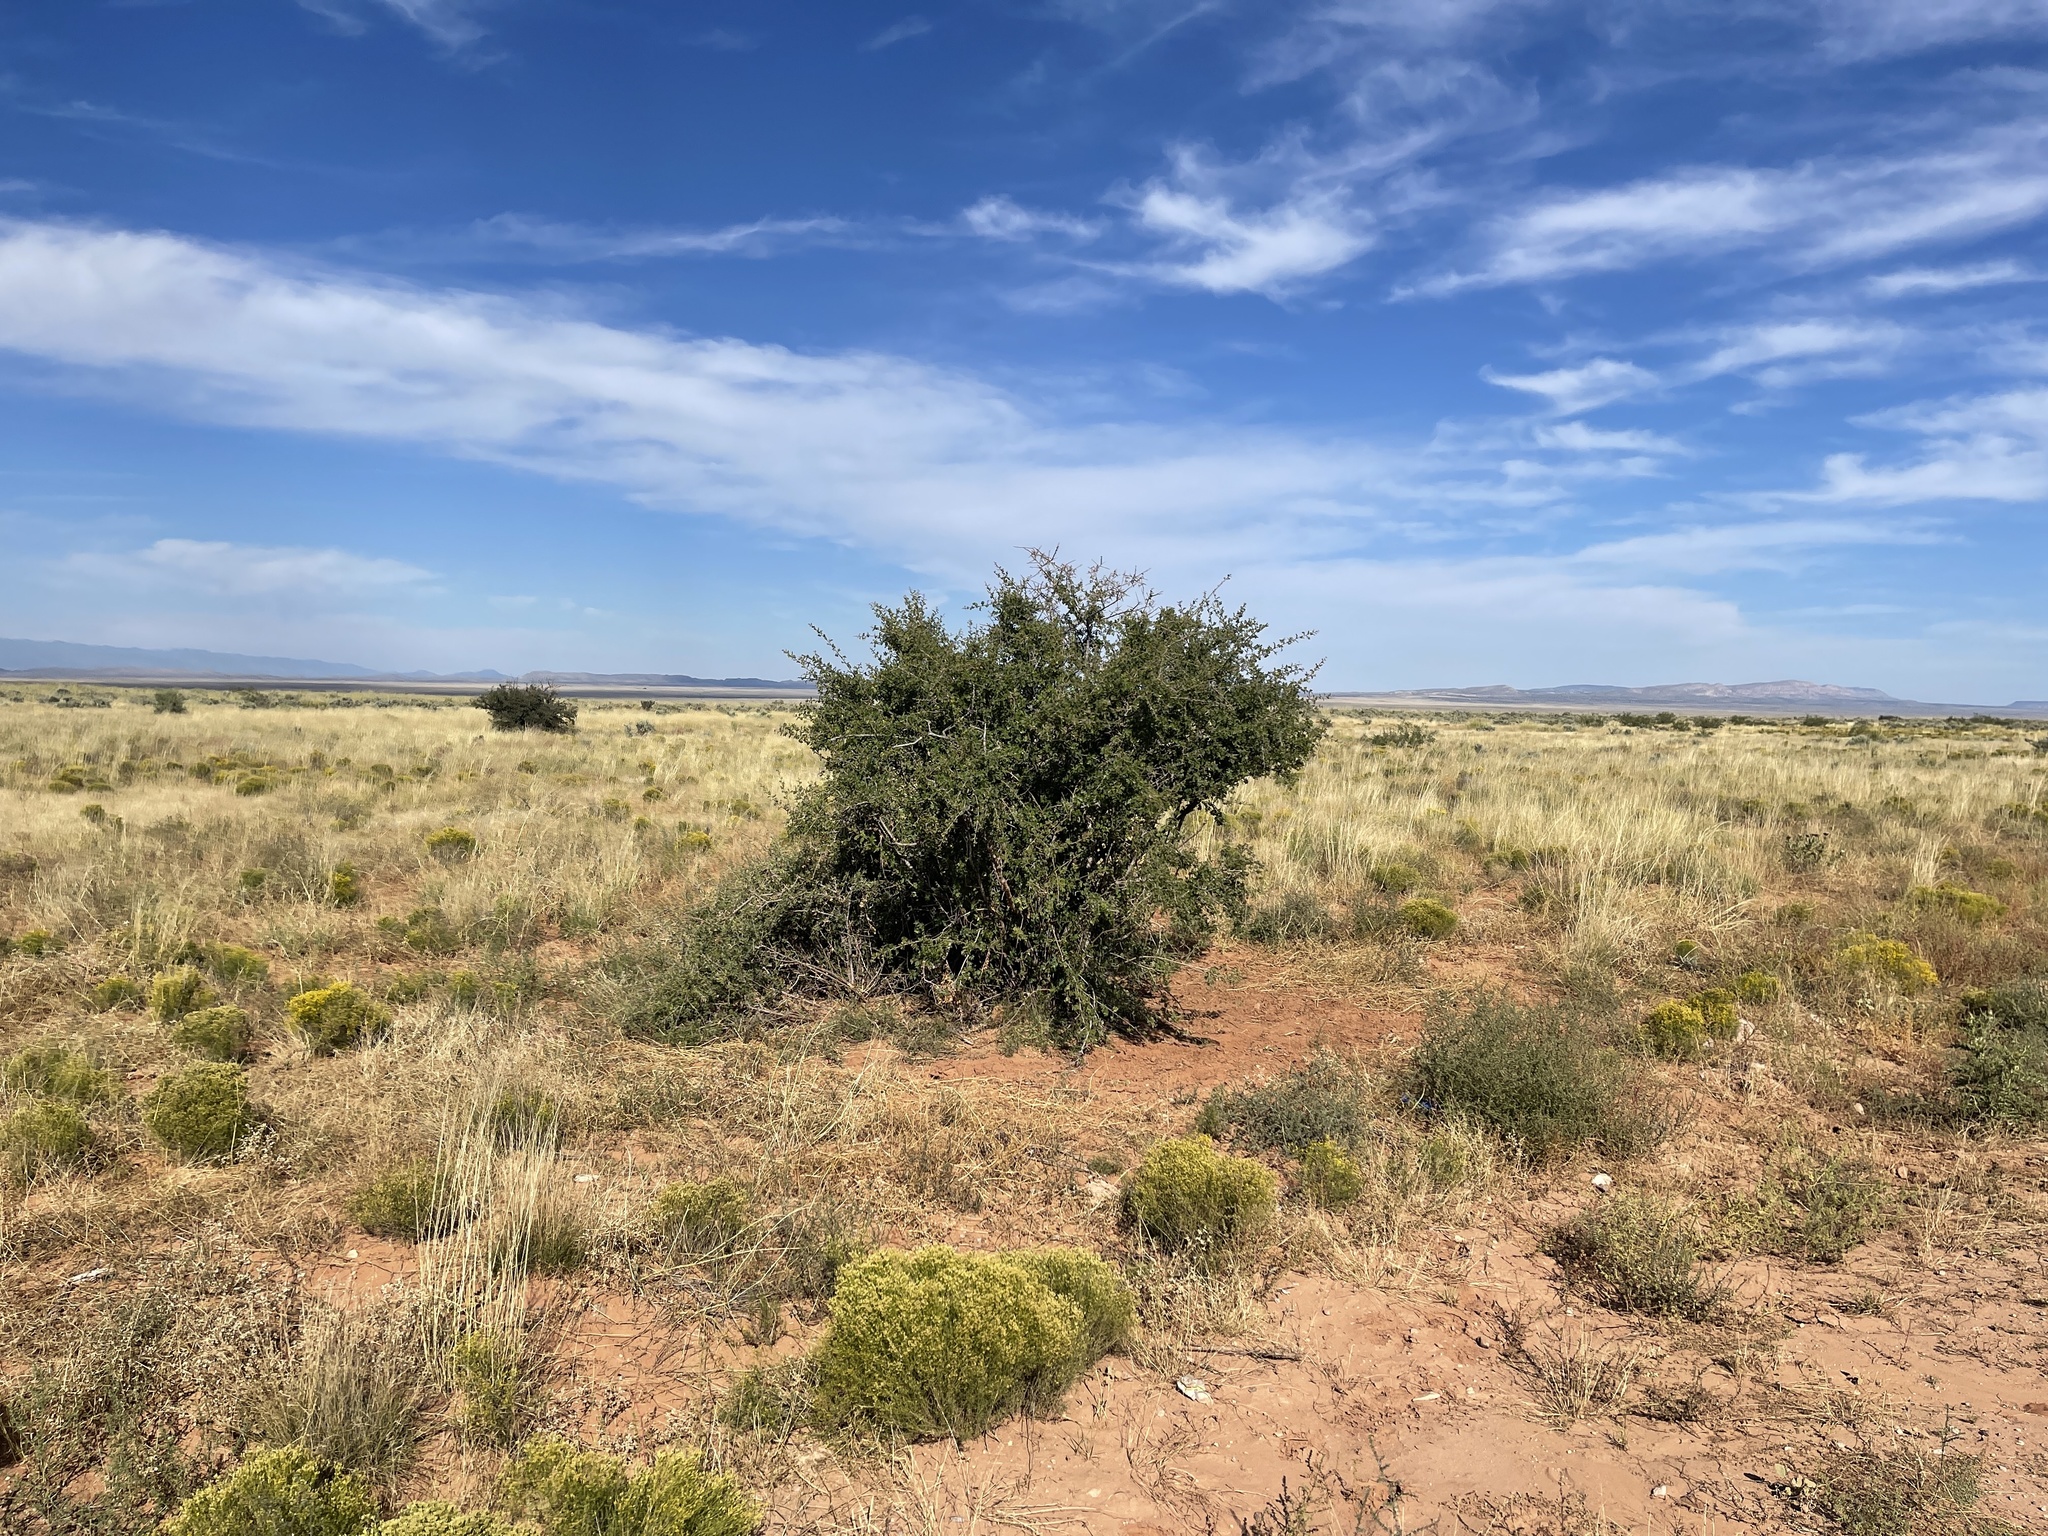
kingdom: Plantae
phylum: Tracheophyta
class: Magnoliopsida
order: Sapindales
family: Anacardiaceae
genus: Rhus
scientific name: Rhus microphylla
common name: Desert sumac
